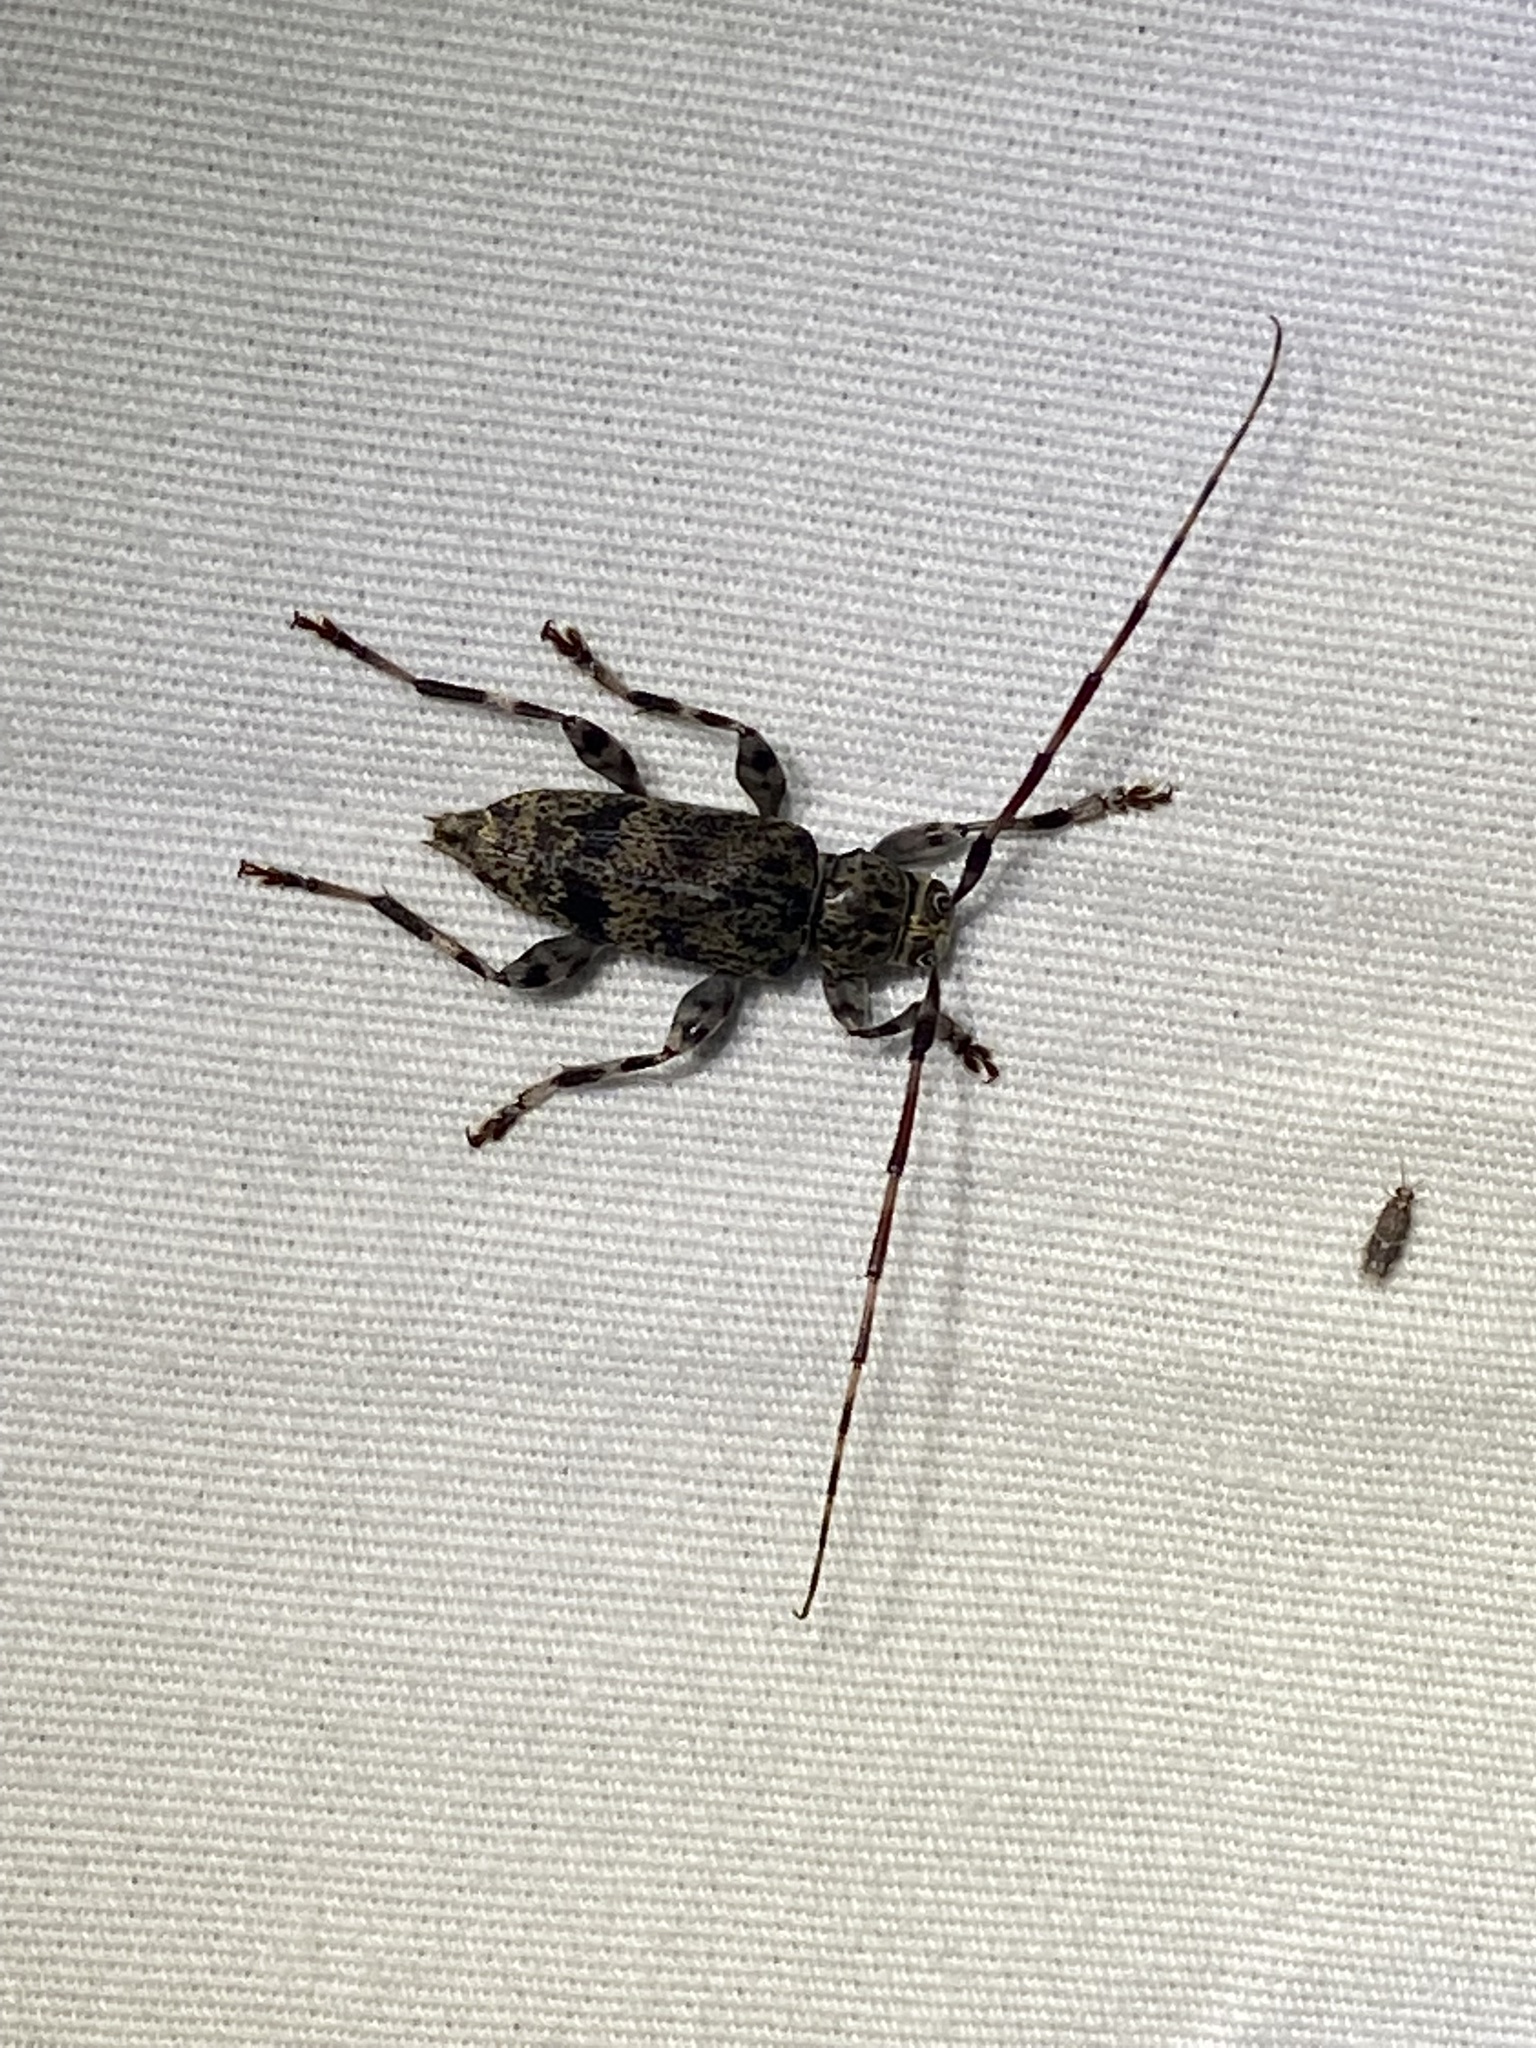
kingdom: Animalia
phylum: Arthropoda
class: Insecta
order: Coleoptera
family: Cerambycidae
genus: Graphisurus
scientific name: Graphisurus fasciatus
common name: Banded graphisurus
